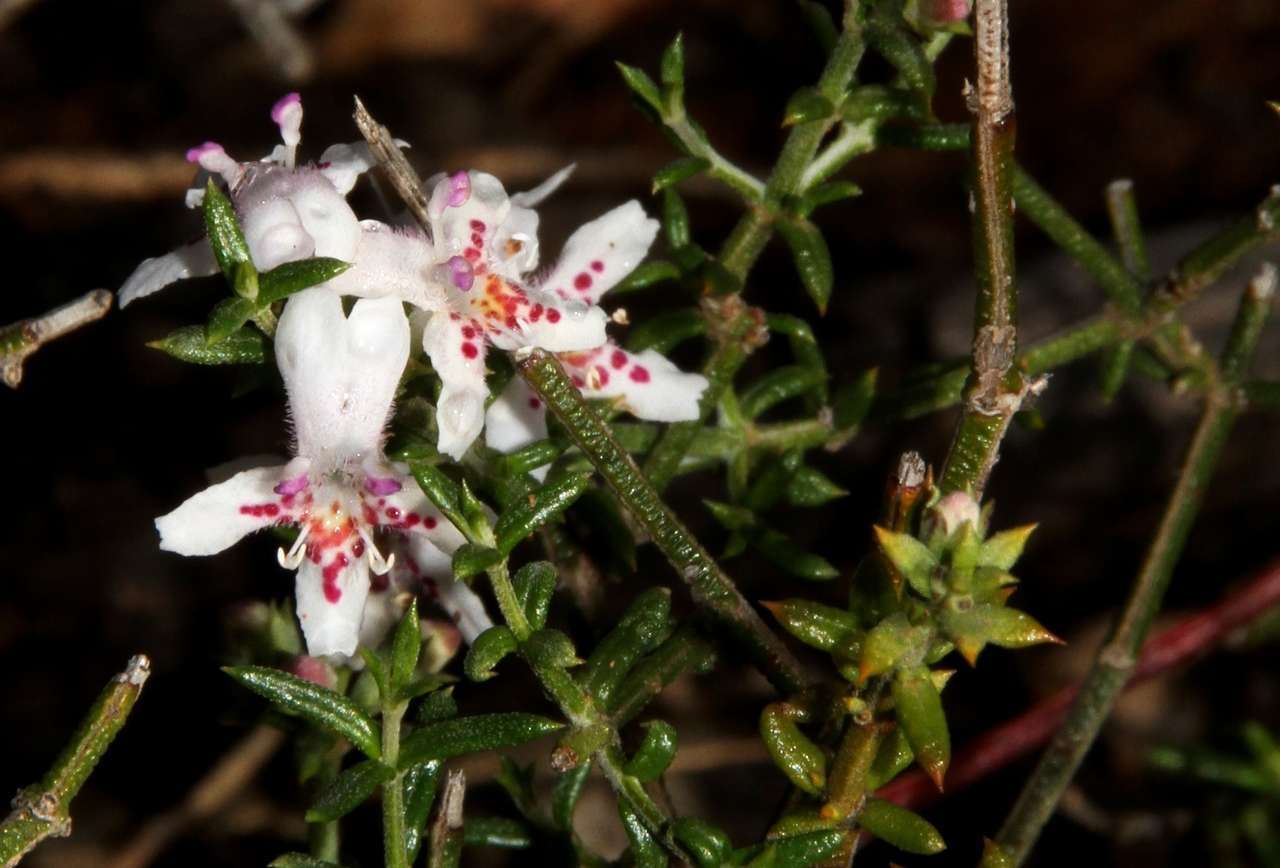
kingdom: Plantae
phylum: Tracheophyta
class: Magnoliopsida
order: Lamiales
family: Lamiaceae
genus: Westringia
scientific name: Westringia rigida
